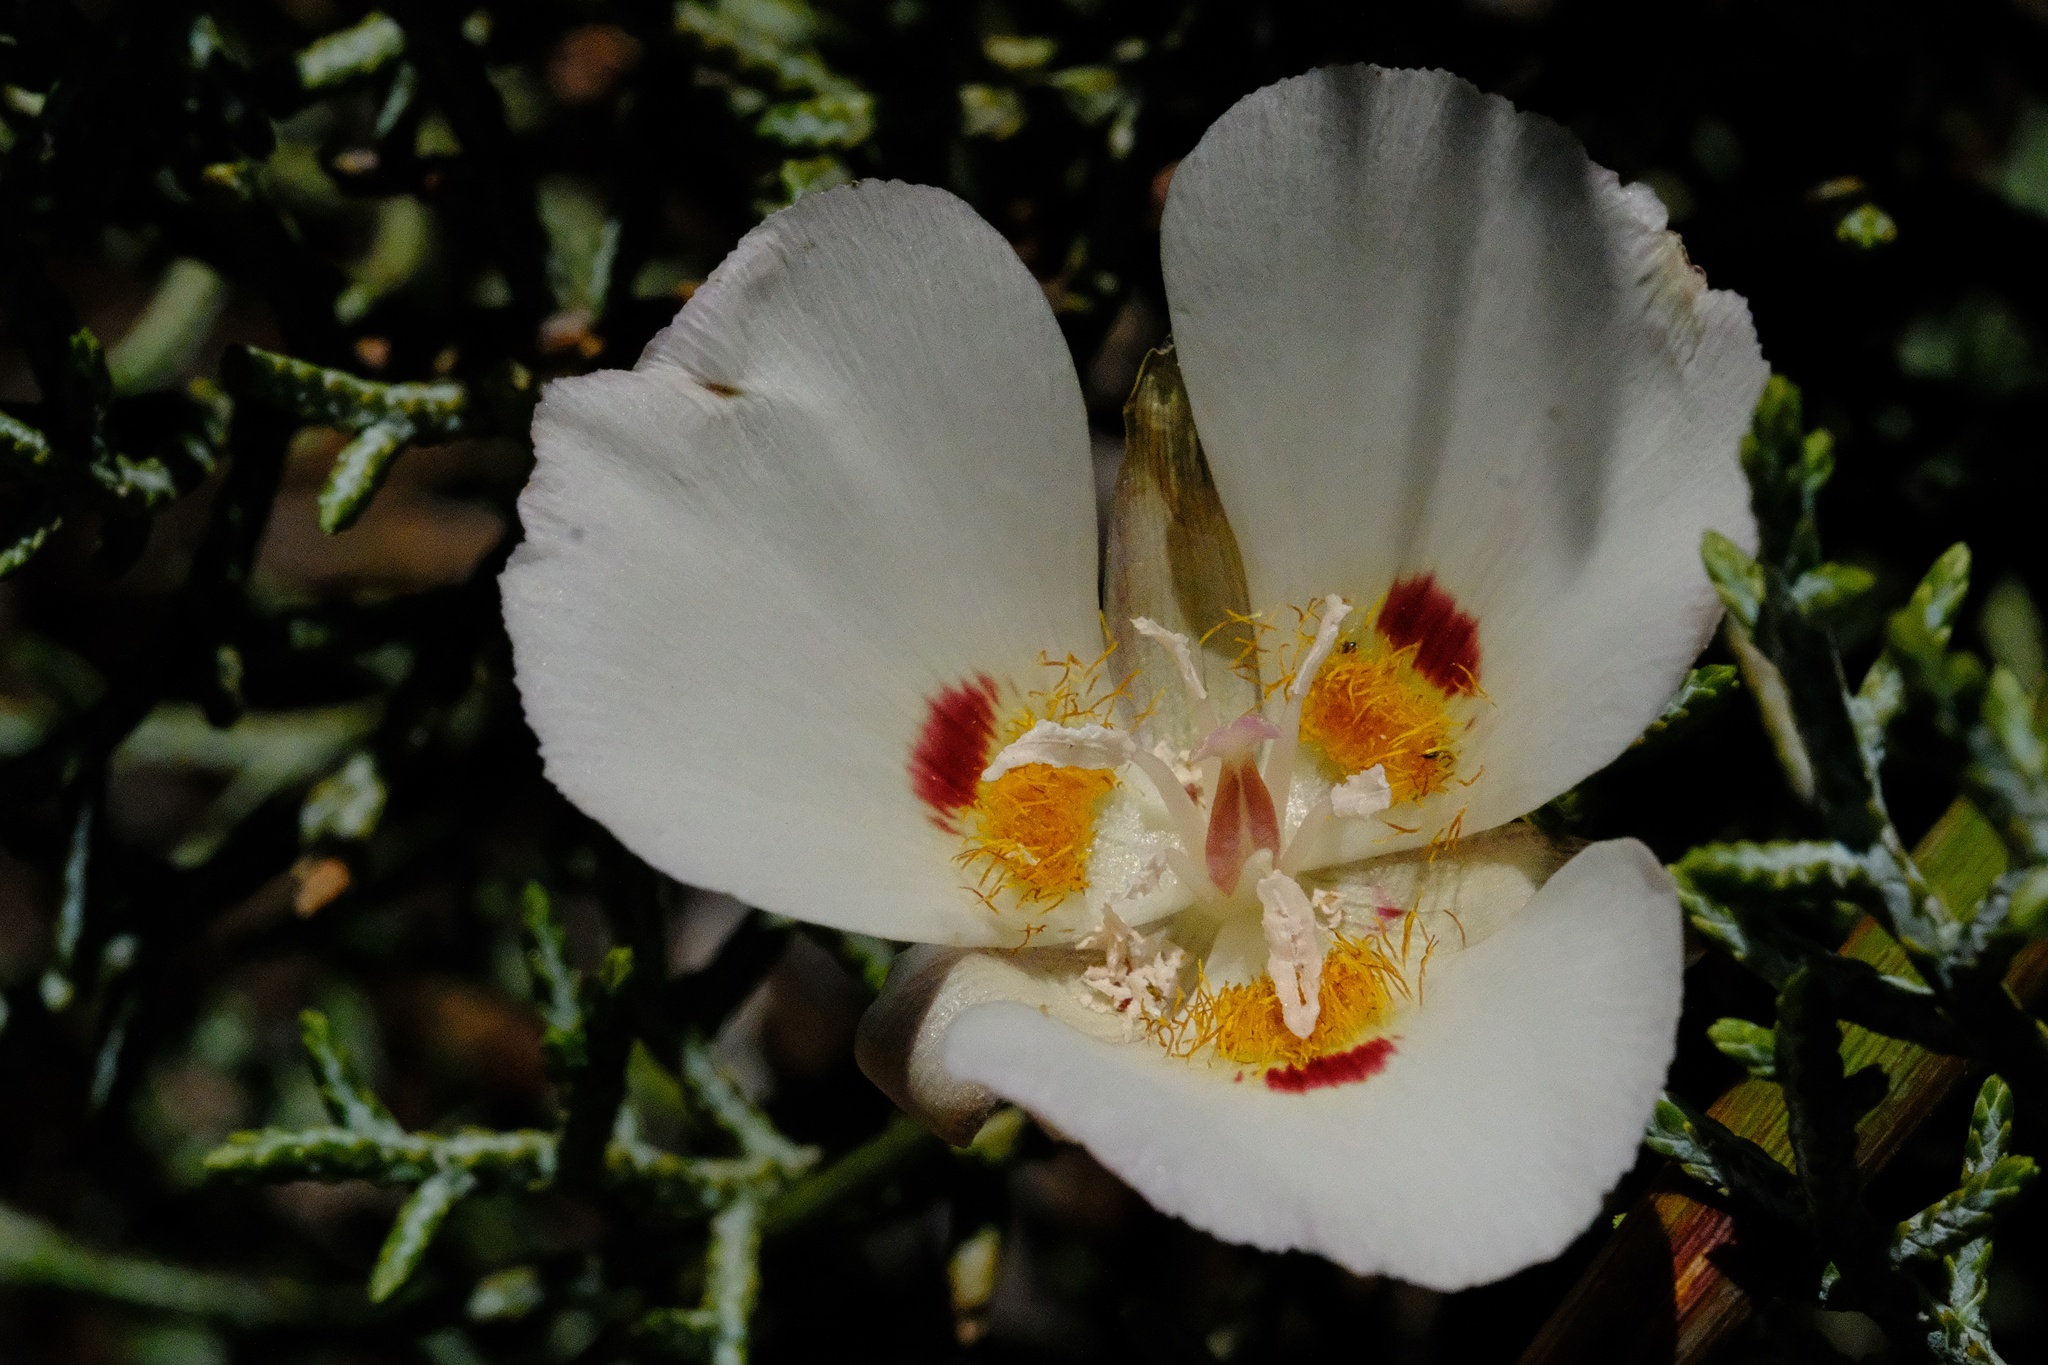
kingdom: Plantae
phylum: Tracheophyta
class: Liliopsida
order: Liliales
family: Liliaceae
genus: Calochortus
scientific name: Calochortus dunnii
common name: Dunn's mariposa-lily
